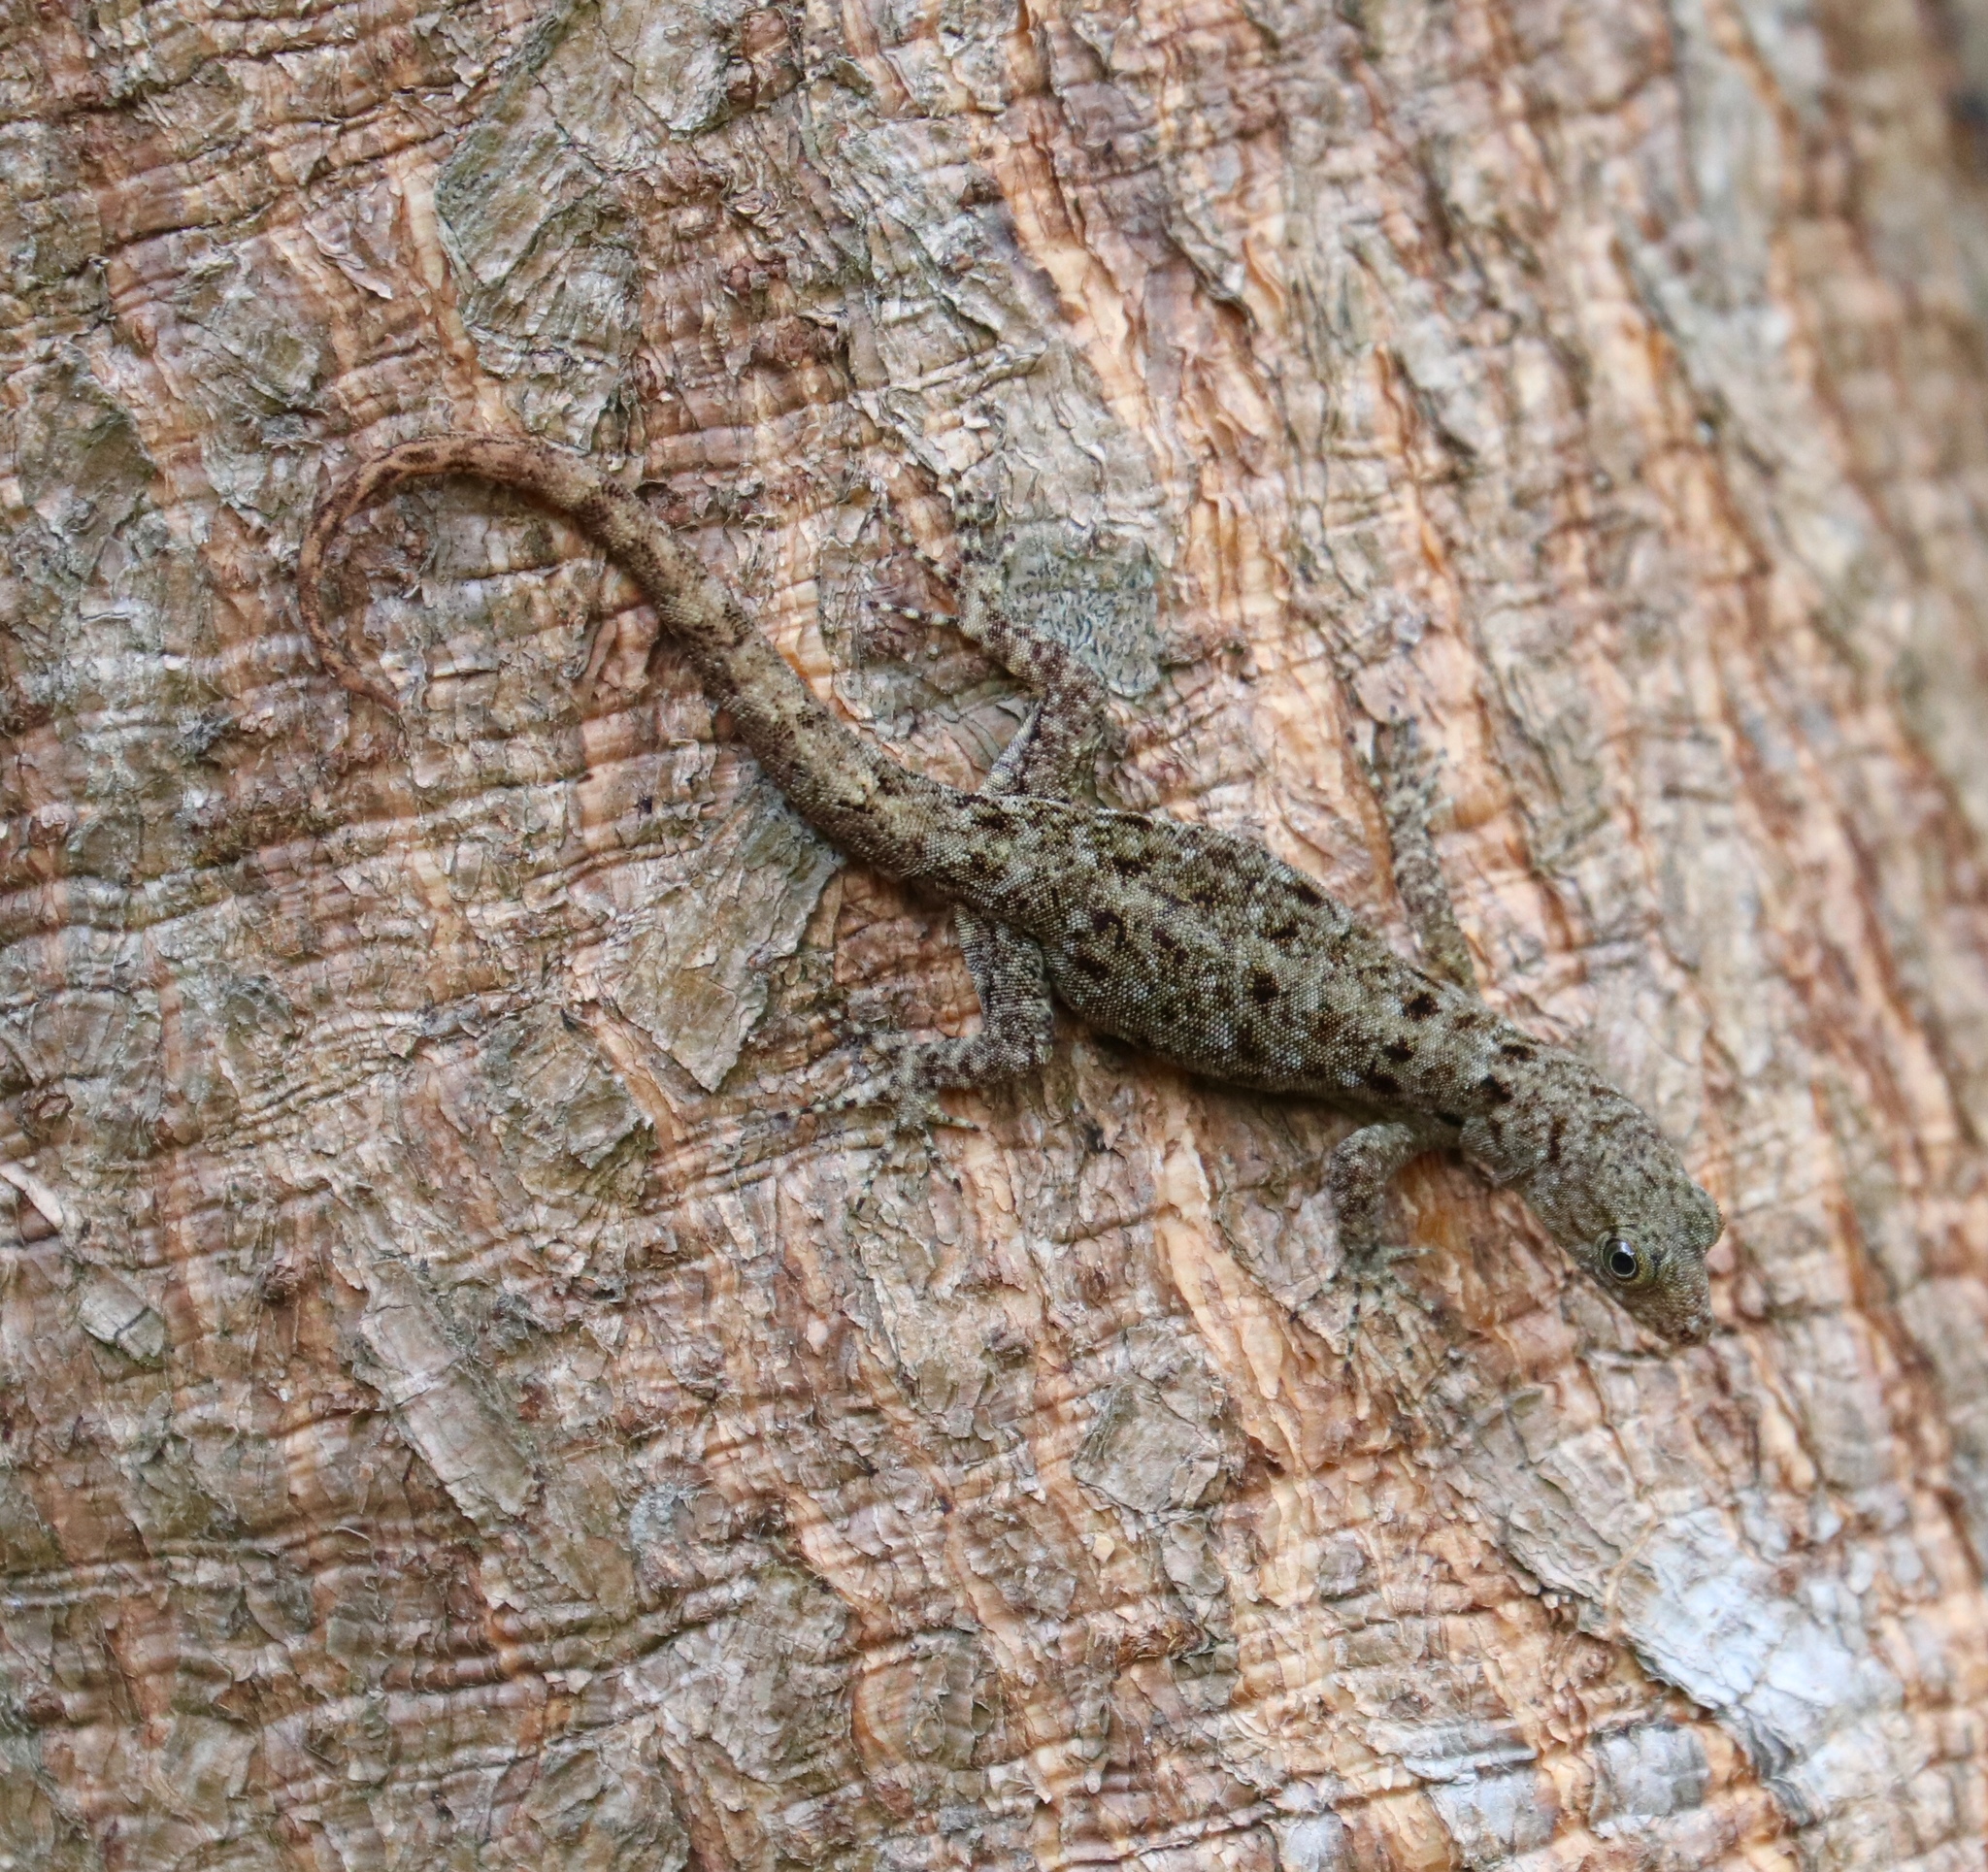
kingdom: Animalia
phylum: Chordata
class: Squamata
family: Sphaerodactylidae
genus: Gonatodes
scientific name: Gonatodes albogularis
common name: Yellow-headed gecko
